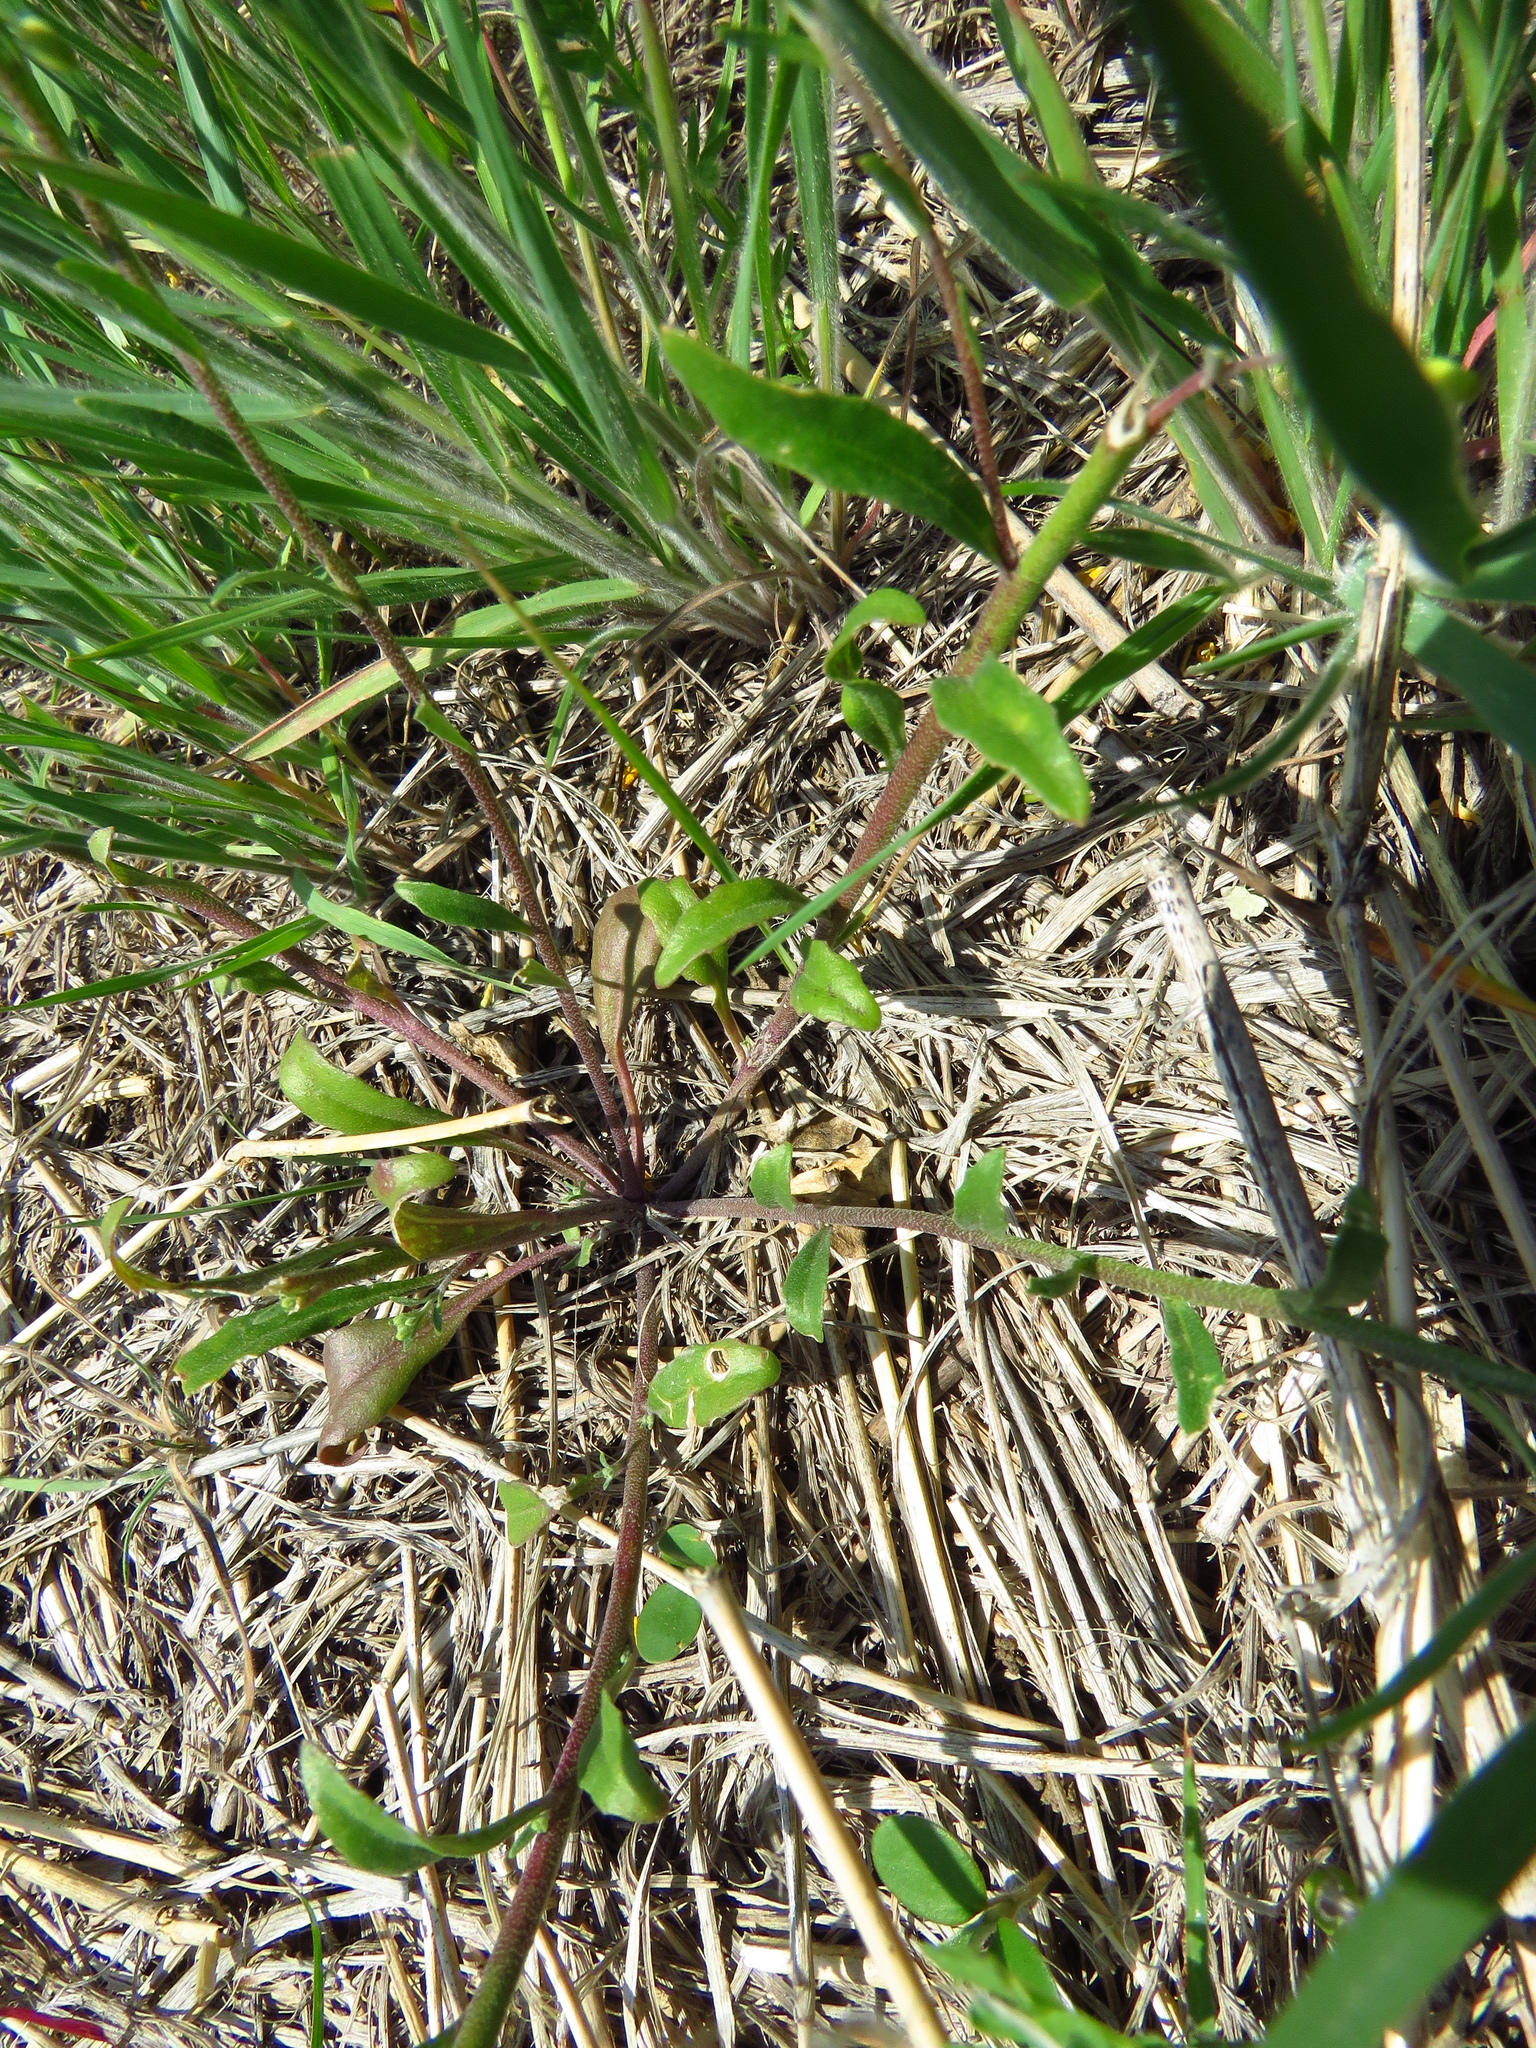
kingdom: Plantae
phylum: Tracheophyta
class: Magnoliopsida
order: Brassicales
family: Brassicaceae
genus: Physaria
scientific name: Physaria gracilis
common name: Spreading bladderpod
